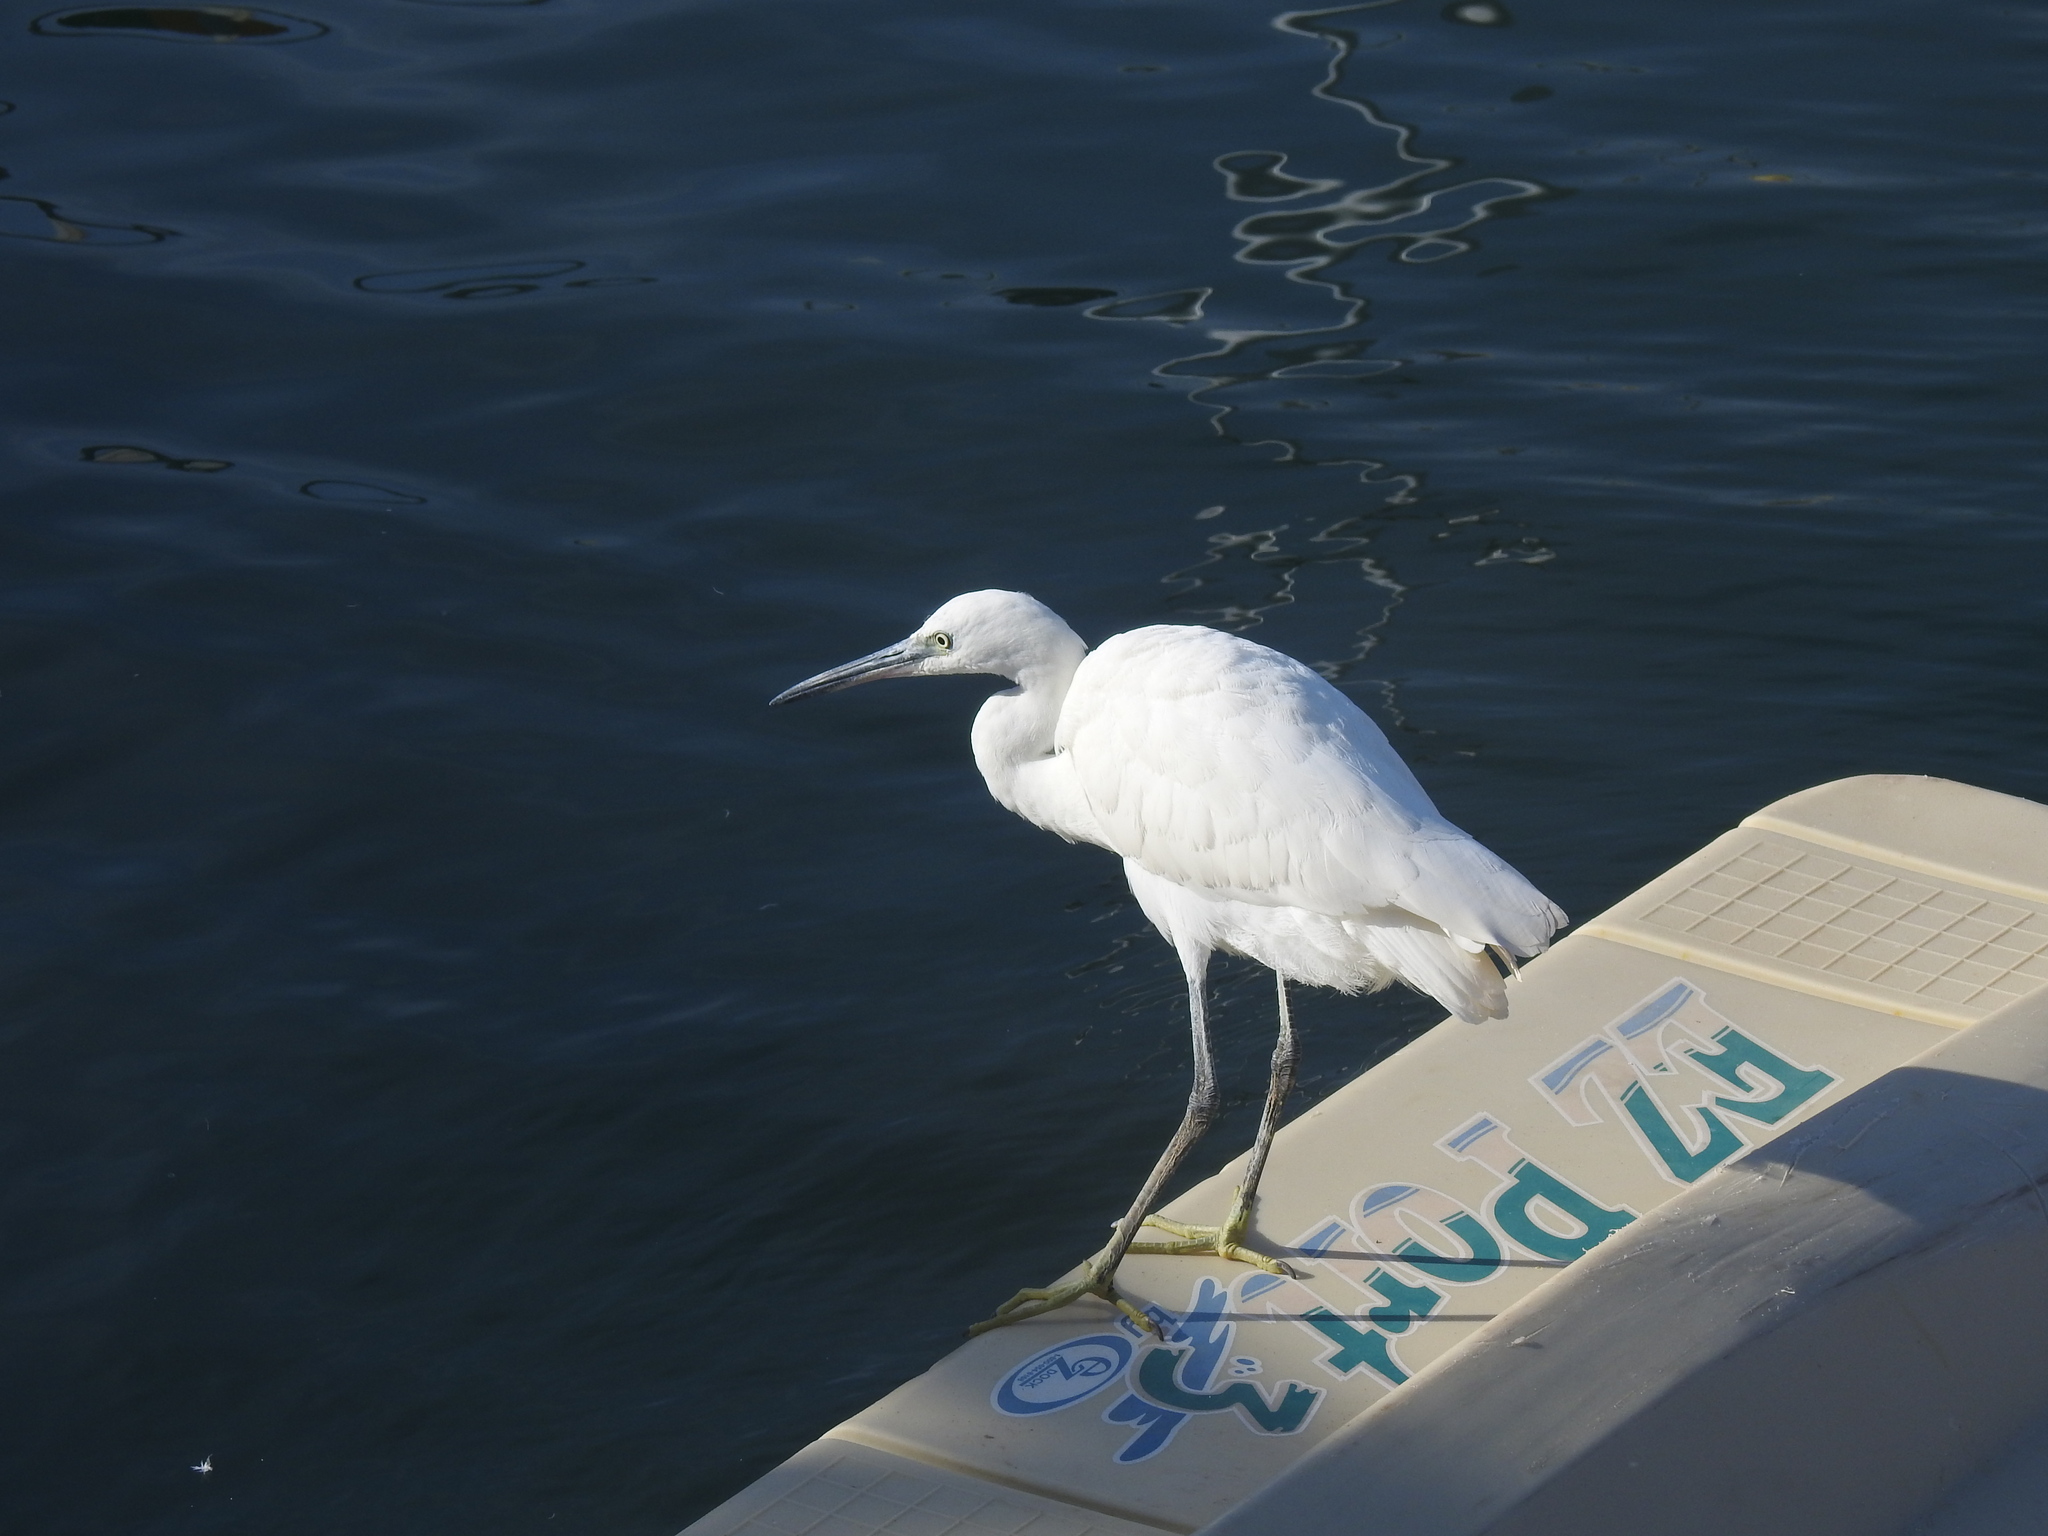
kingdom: Animalia
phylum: Chordata
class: Aves
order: Pelecaniformes
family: Ardeidae
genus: Egretta
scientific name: Egretta garzetta
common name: Little egret
